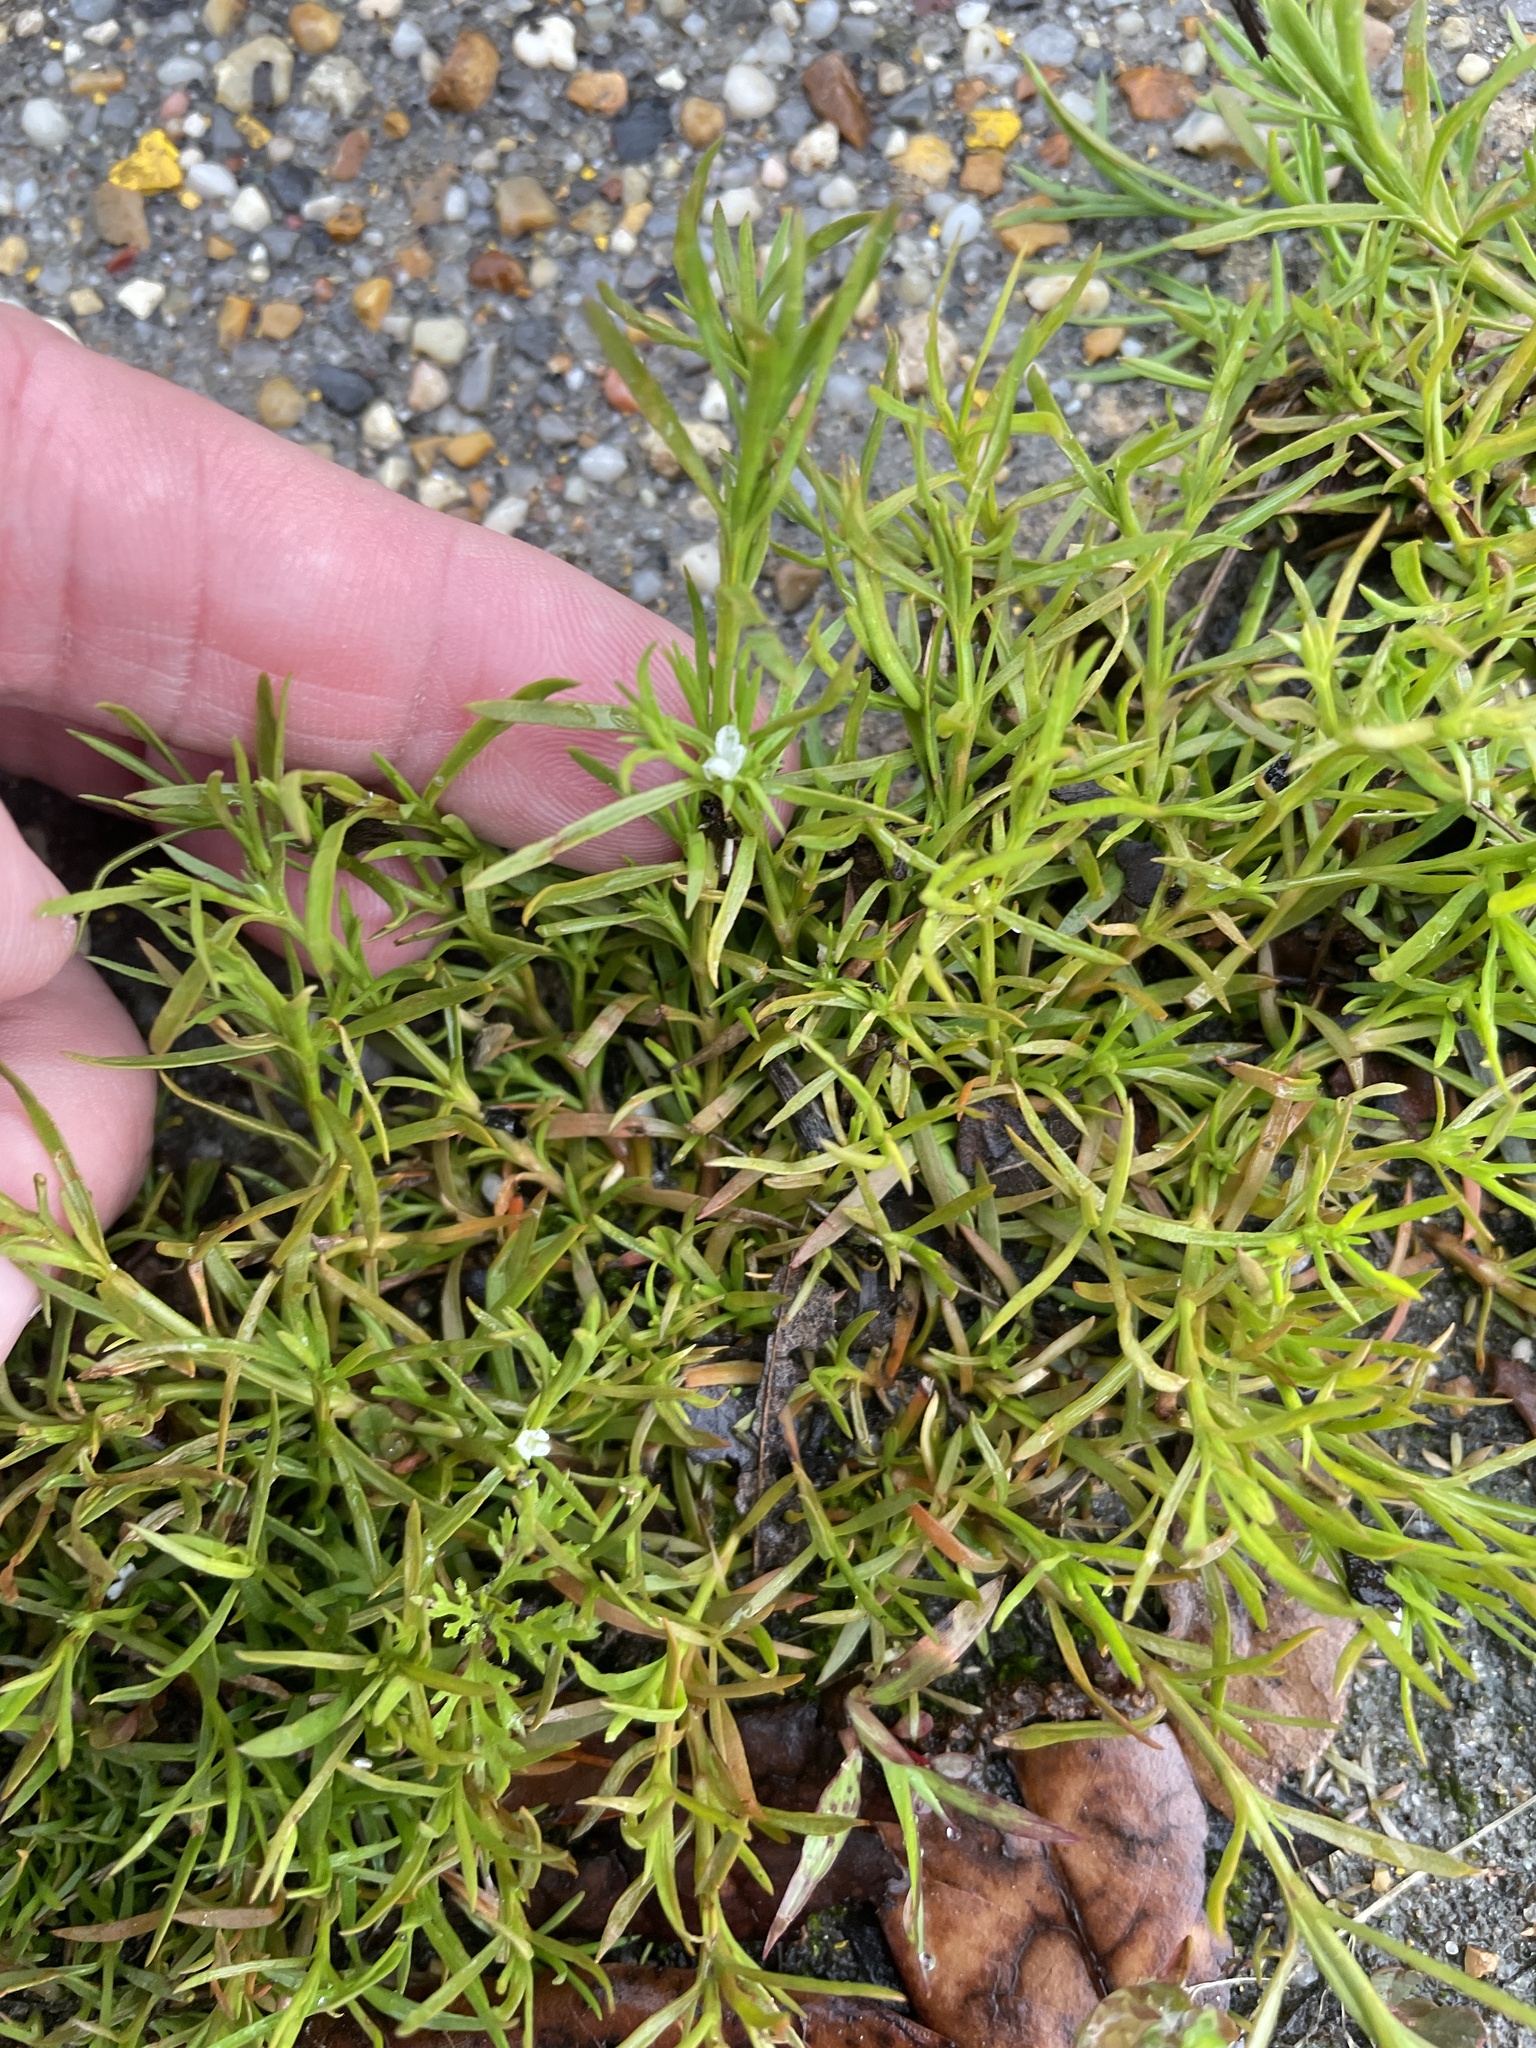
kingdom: Plantae
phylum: Tracheophyta
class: Magnoliopsida
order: Lamiales
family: Tetrachondraceae
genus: Polypremum
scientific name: Polypremum procumbens
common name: Juniper-leaf
